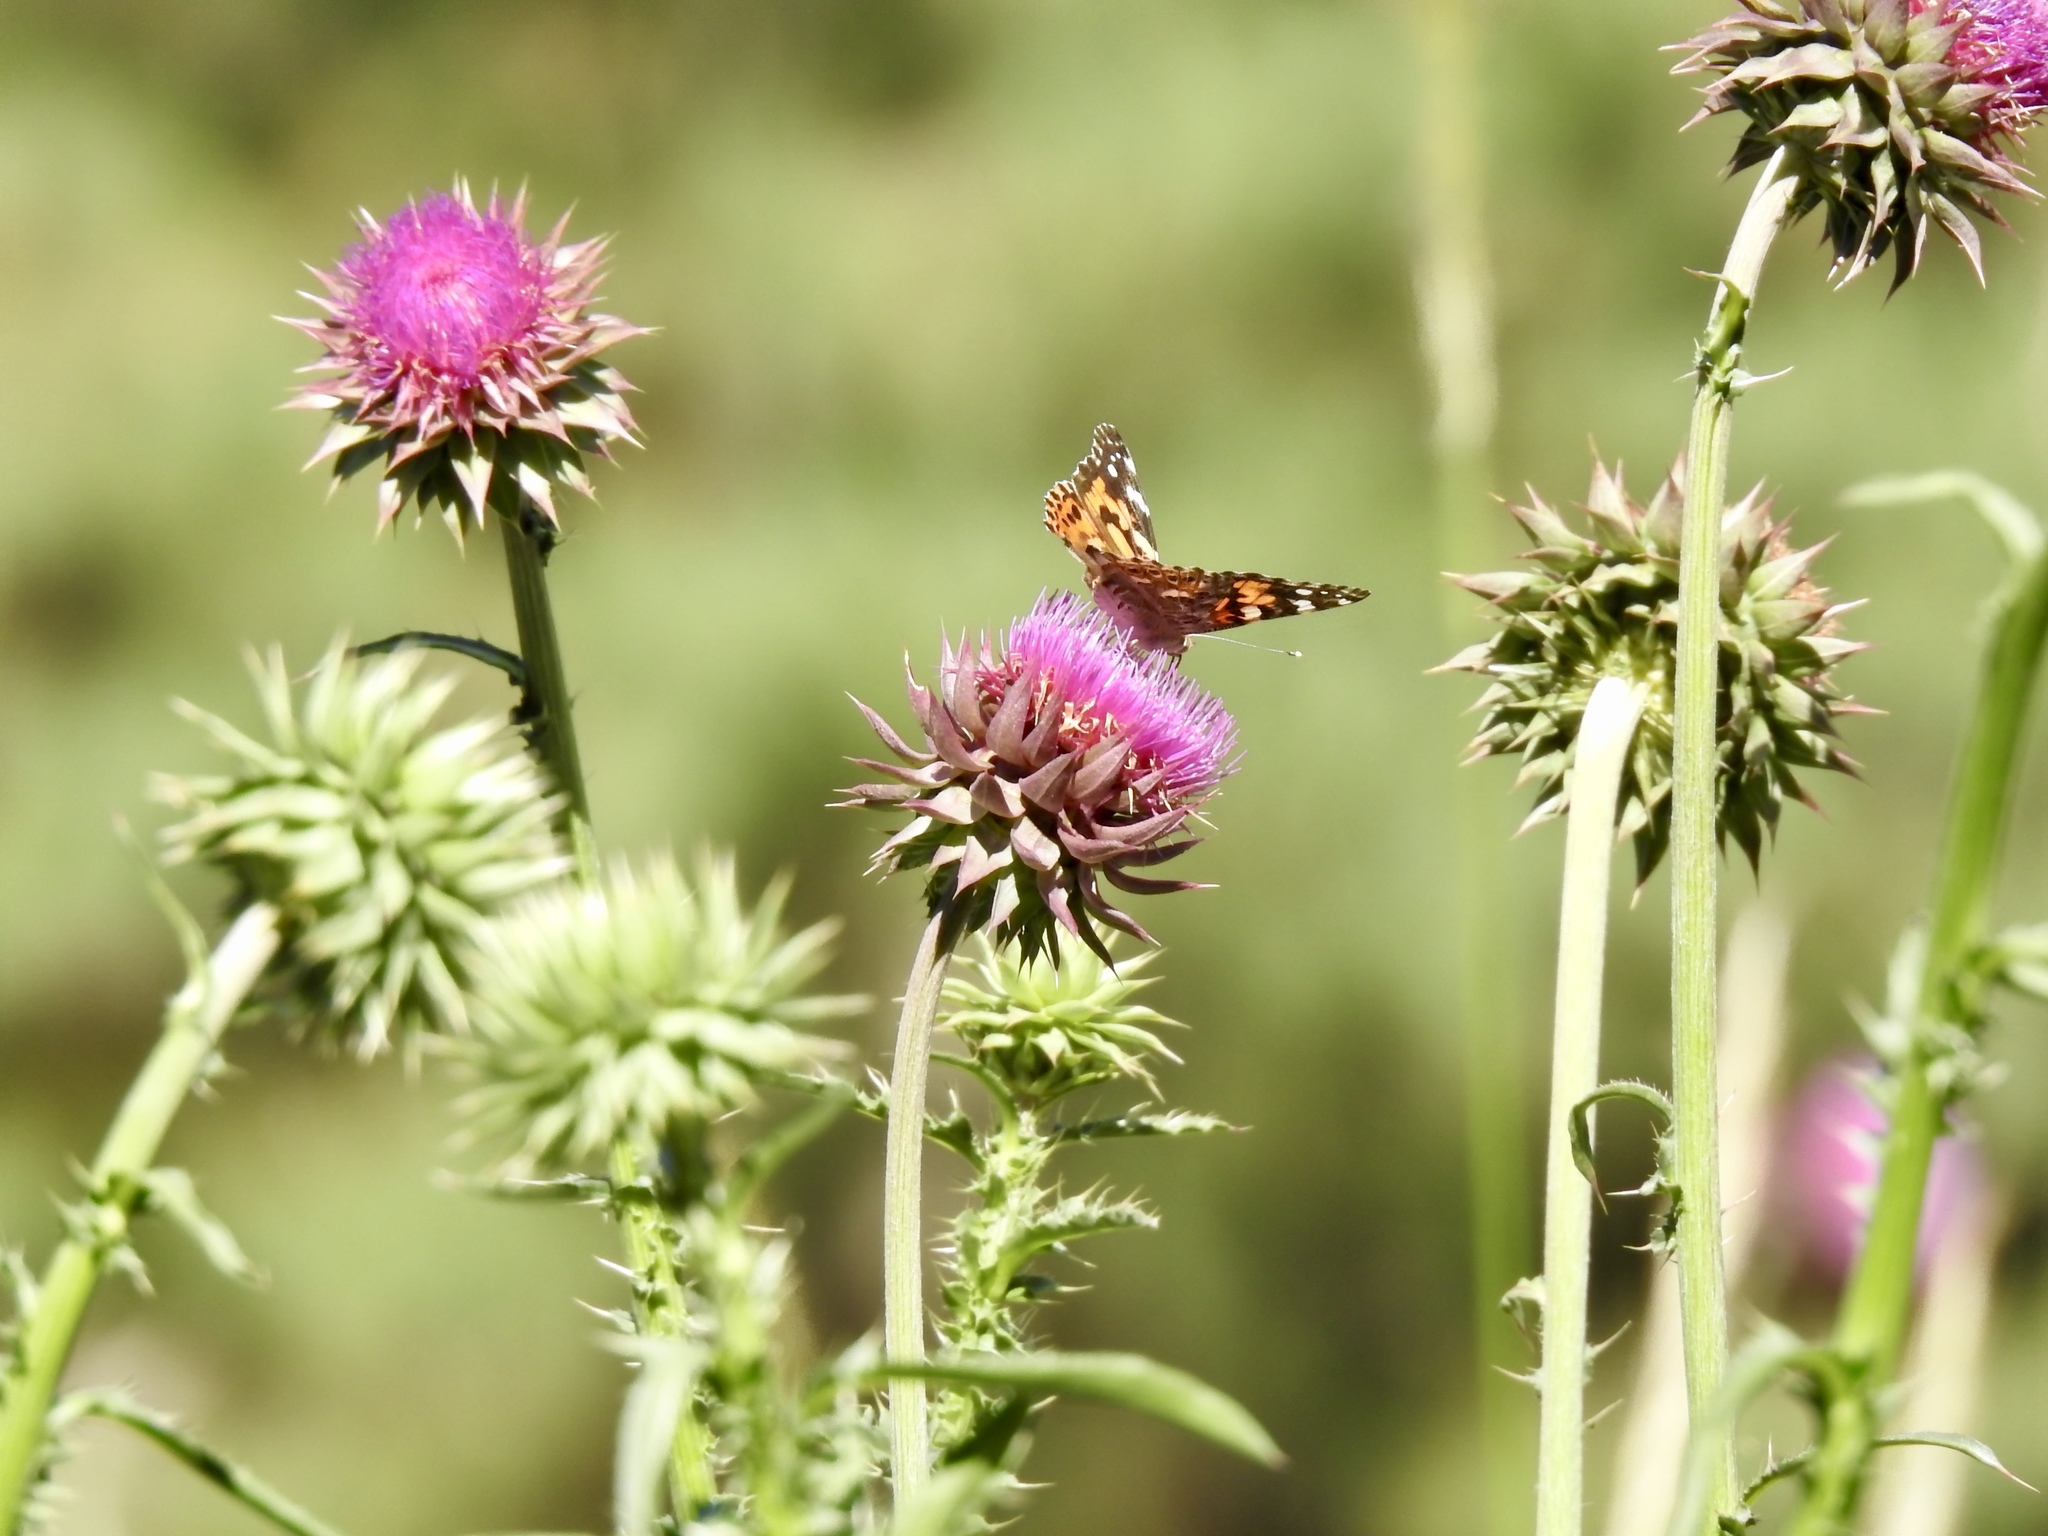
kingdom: Plantae
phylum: Tracheophyta
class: Magnoliopsida
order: Asterales
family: Asteraceae
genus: Carduus
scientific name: Carduus nutans
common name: Musk thistle
